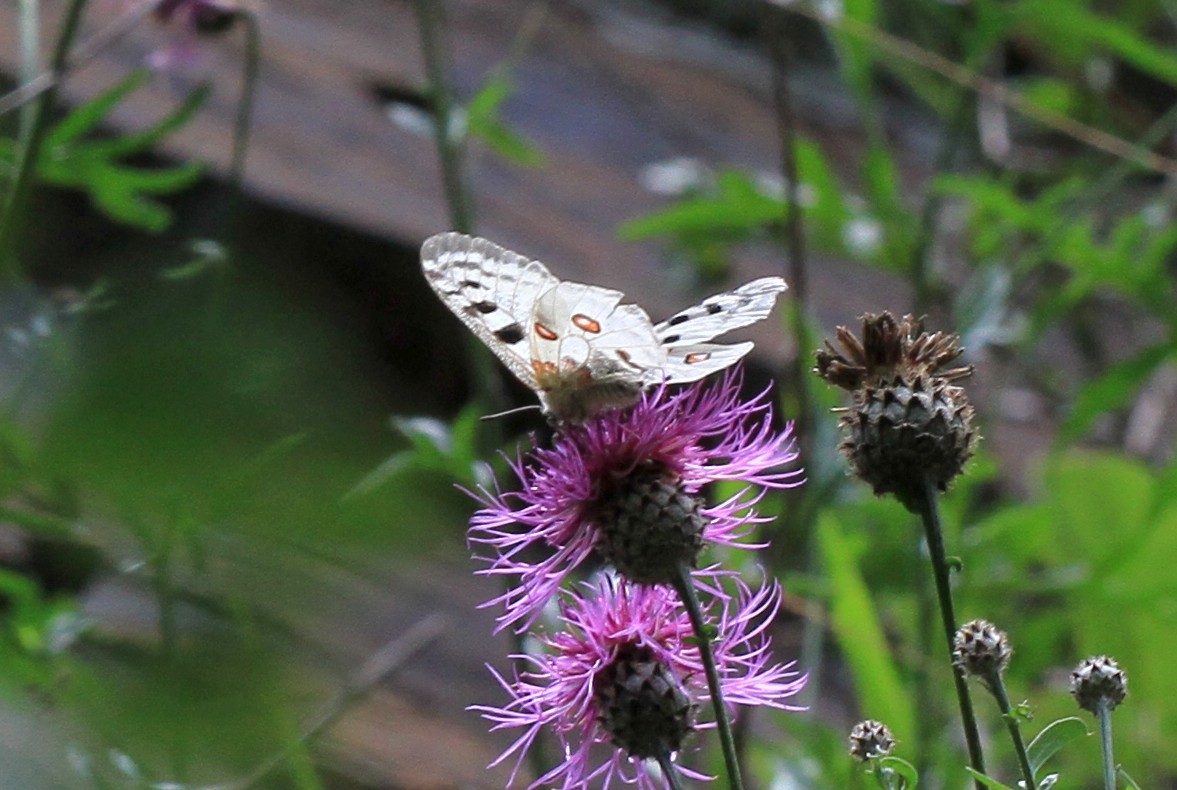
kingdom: Animalia
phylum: Arthropoda
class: Insecta
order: Lepidoptera
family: Papilionidae
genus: Parnassius
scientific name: Parnassius apollo
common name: Apollo
